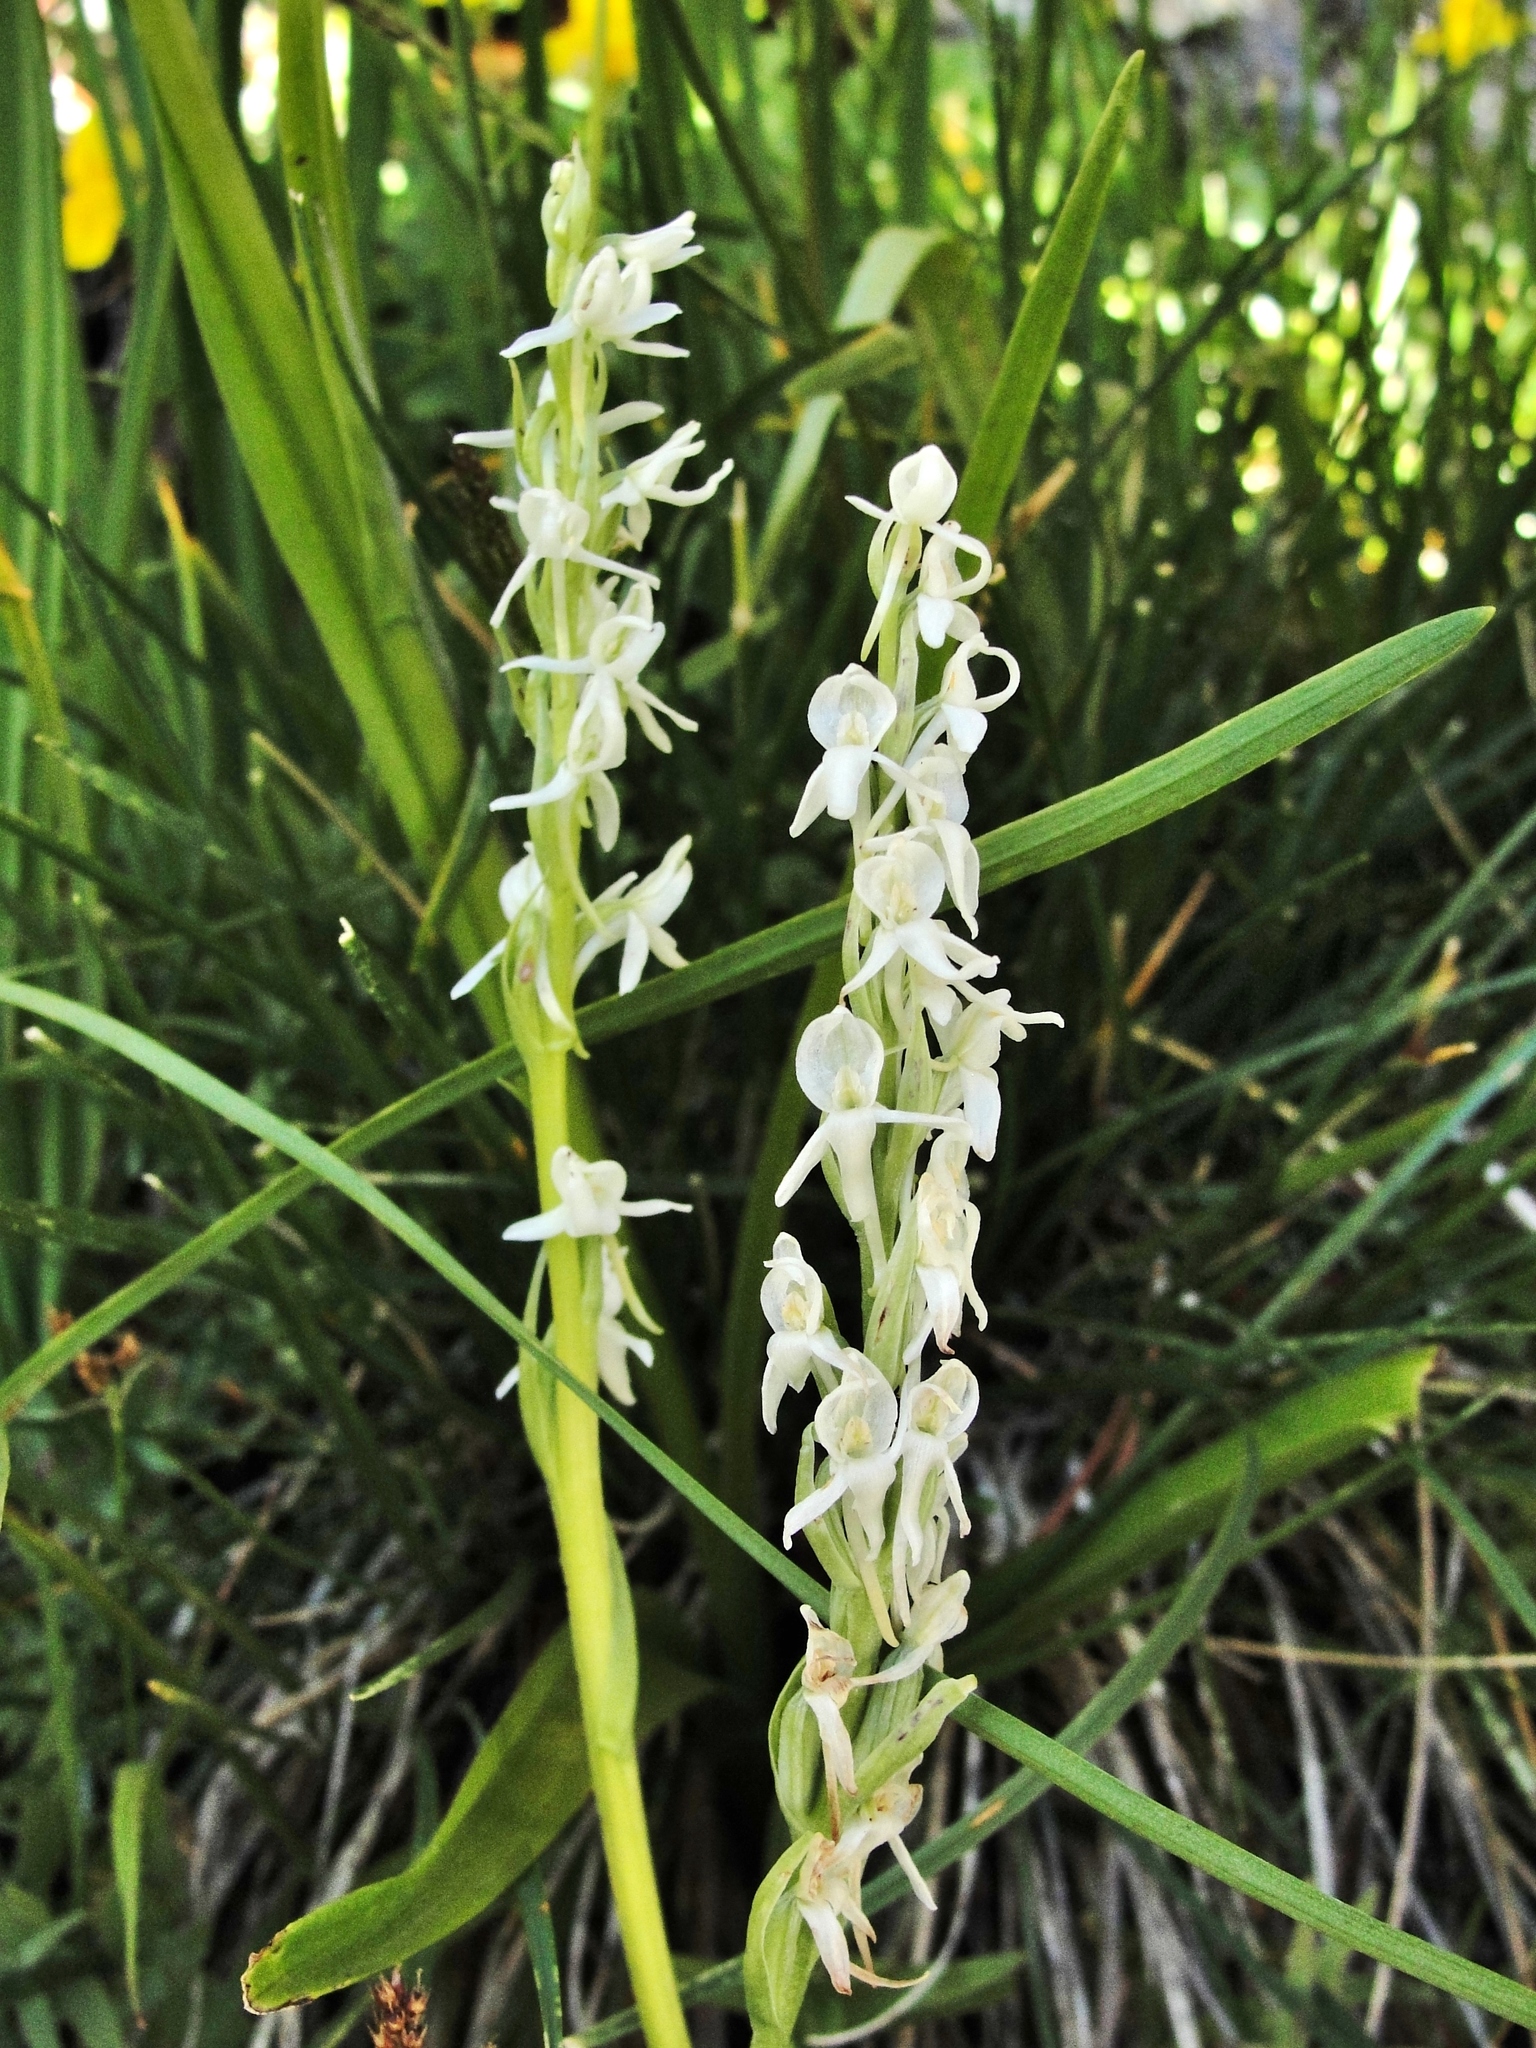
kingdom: Plantae
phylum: Tracheophyta
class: Liliopsida
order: Asparagales
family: Orchidaceae
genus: Platanthera
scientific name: Platanthera dilatata
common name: Bog candles
